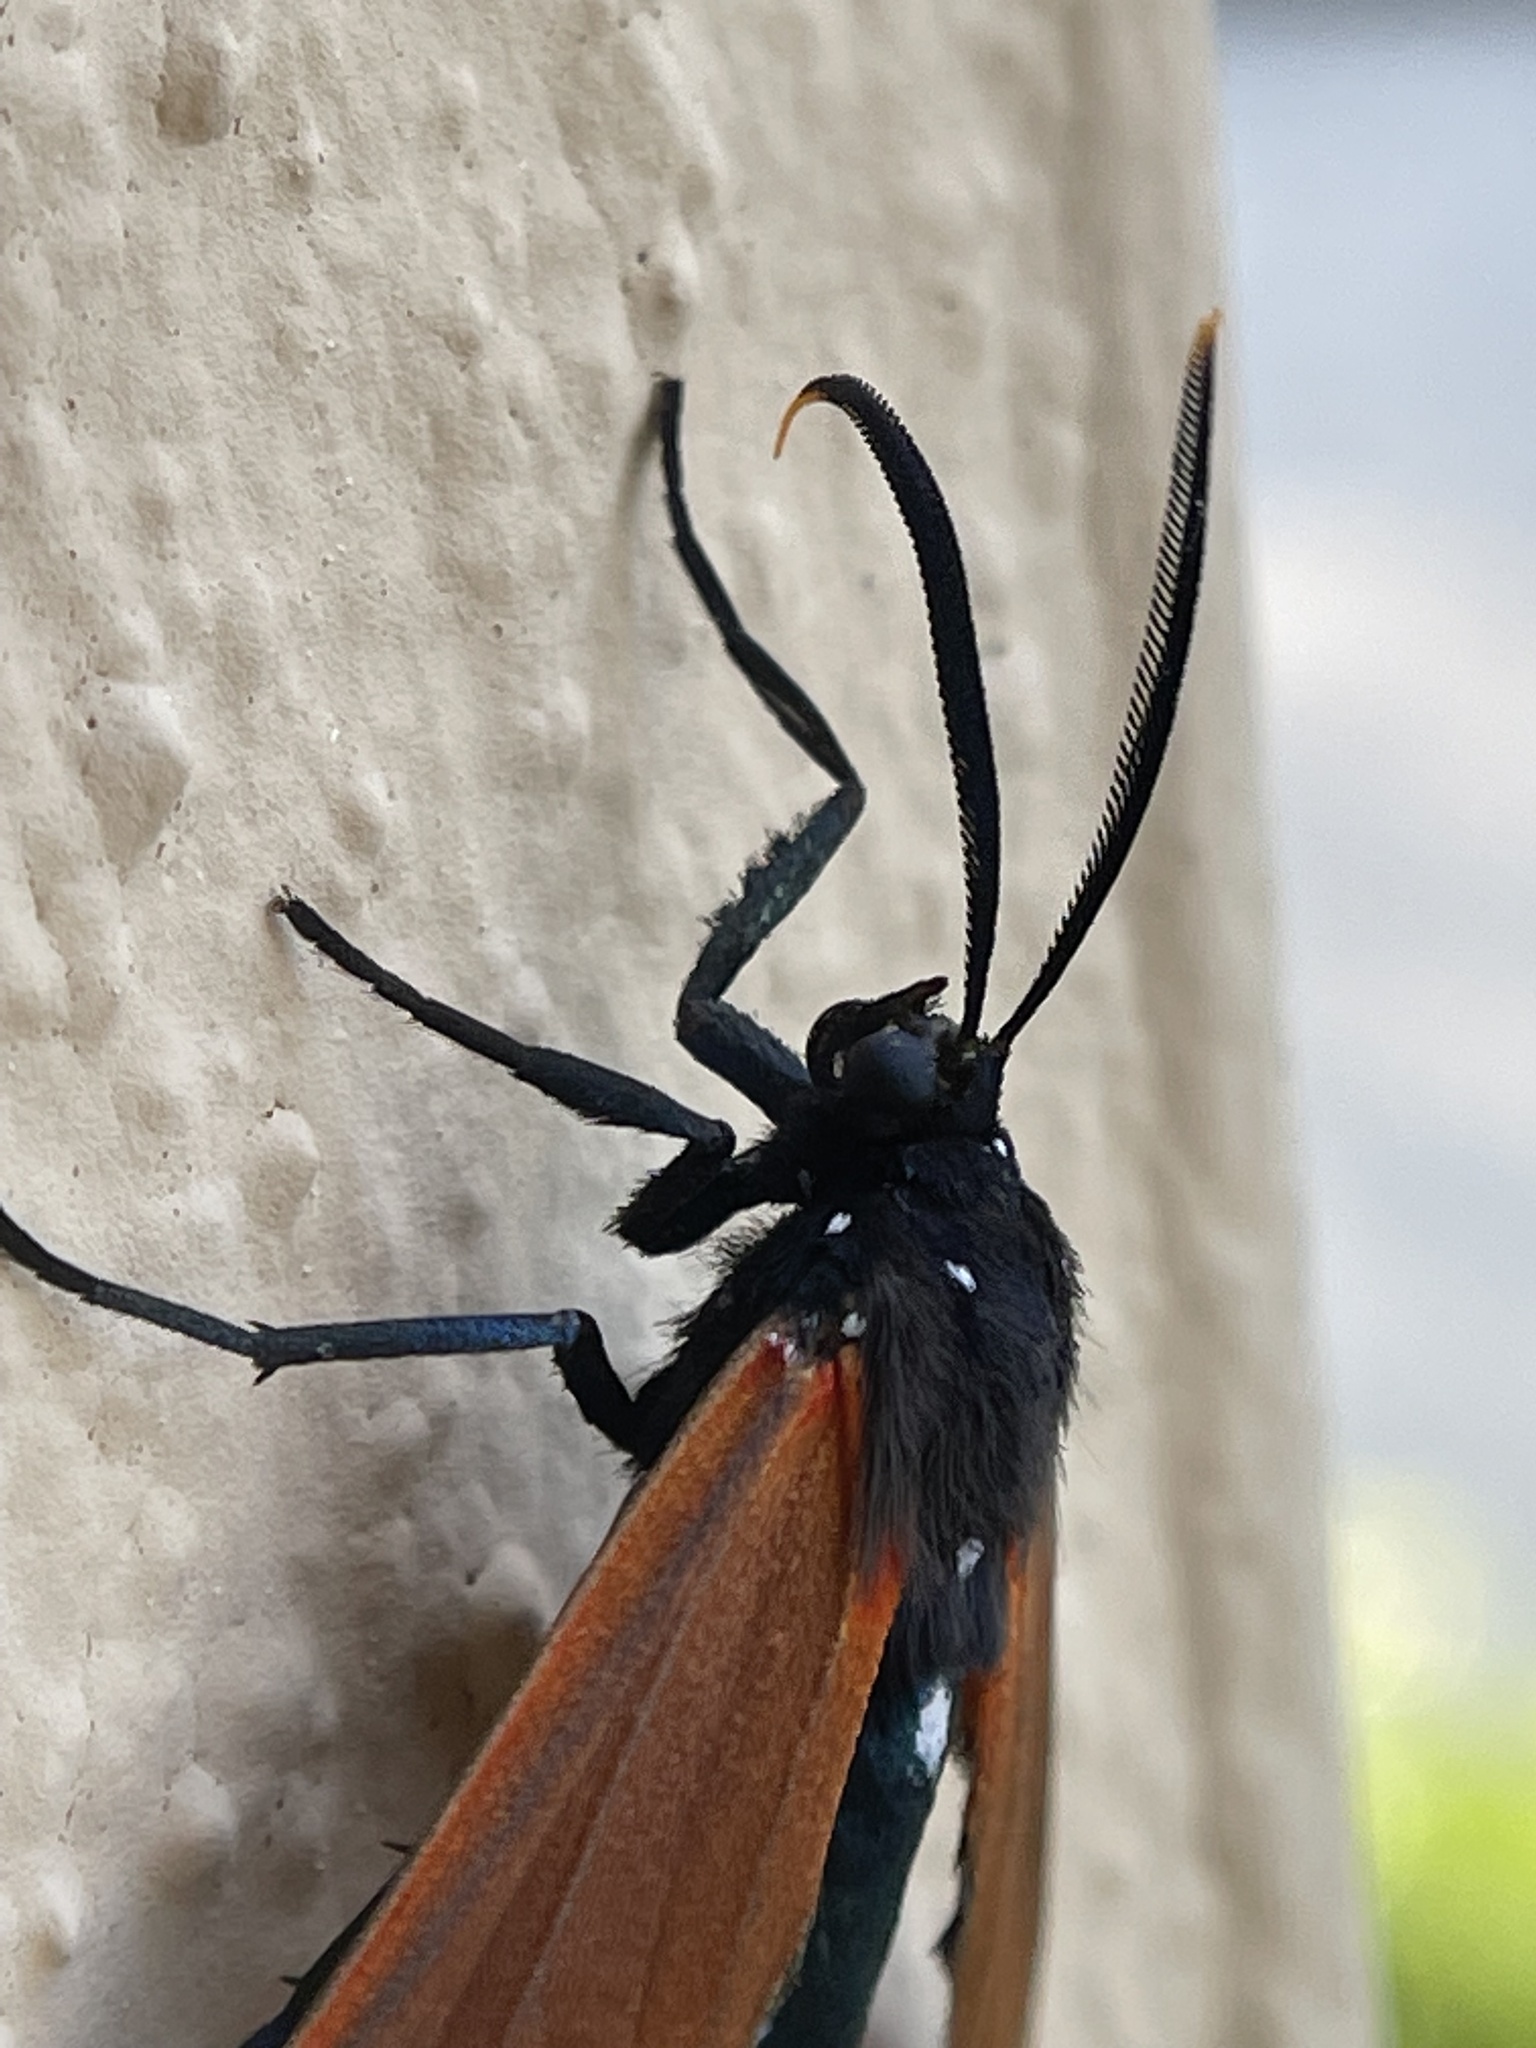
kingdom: Animalia
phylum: Arthropoda
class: Insecta
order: Lepidoptera
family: Erebidae
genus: Empyreuma
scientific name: Empyreuma pugione
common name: Spotted oleander caterpillar moth
